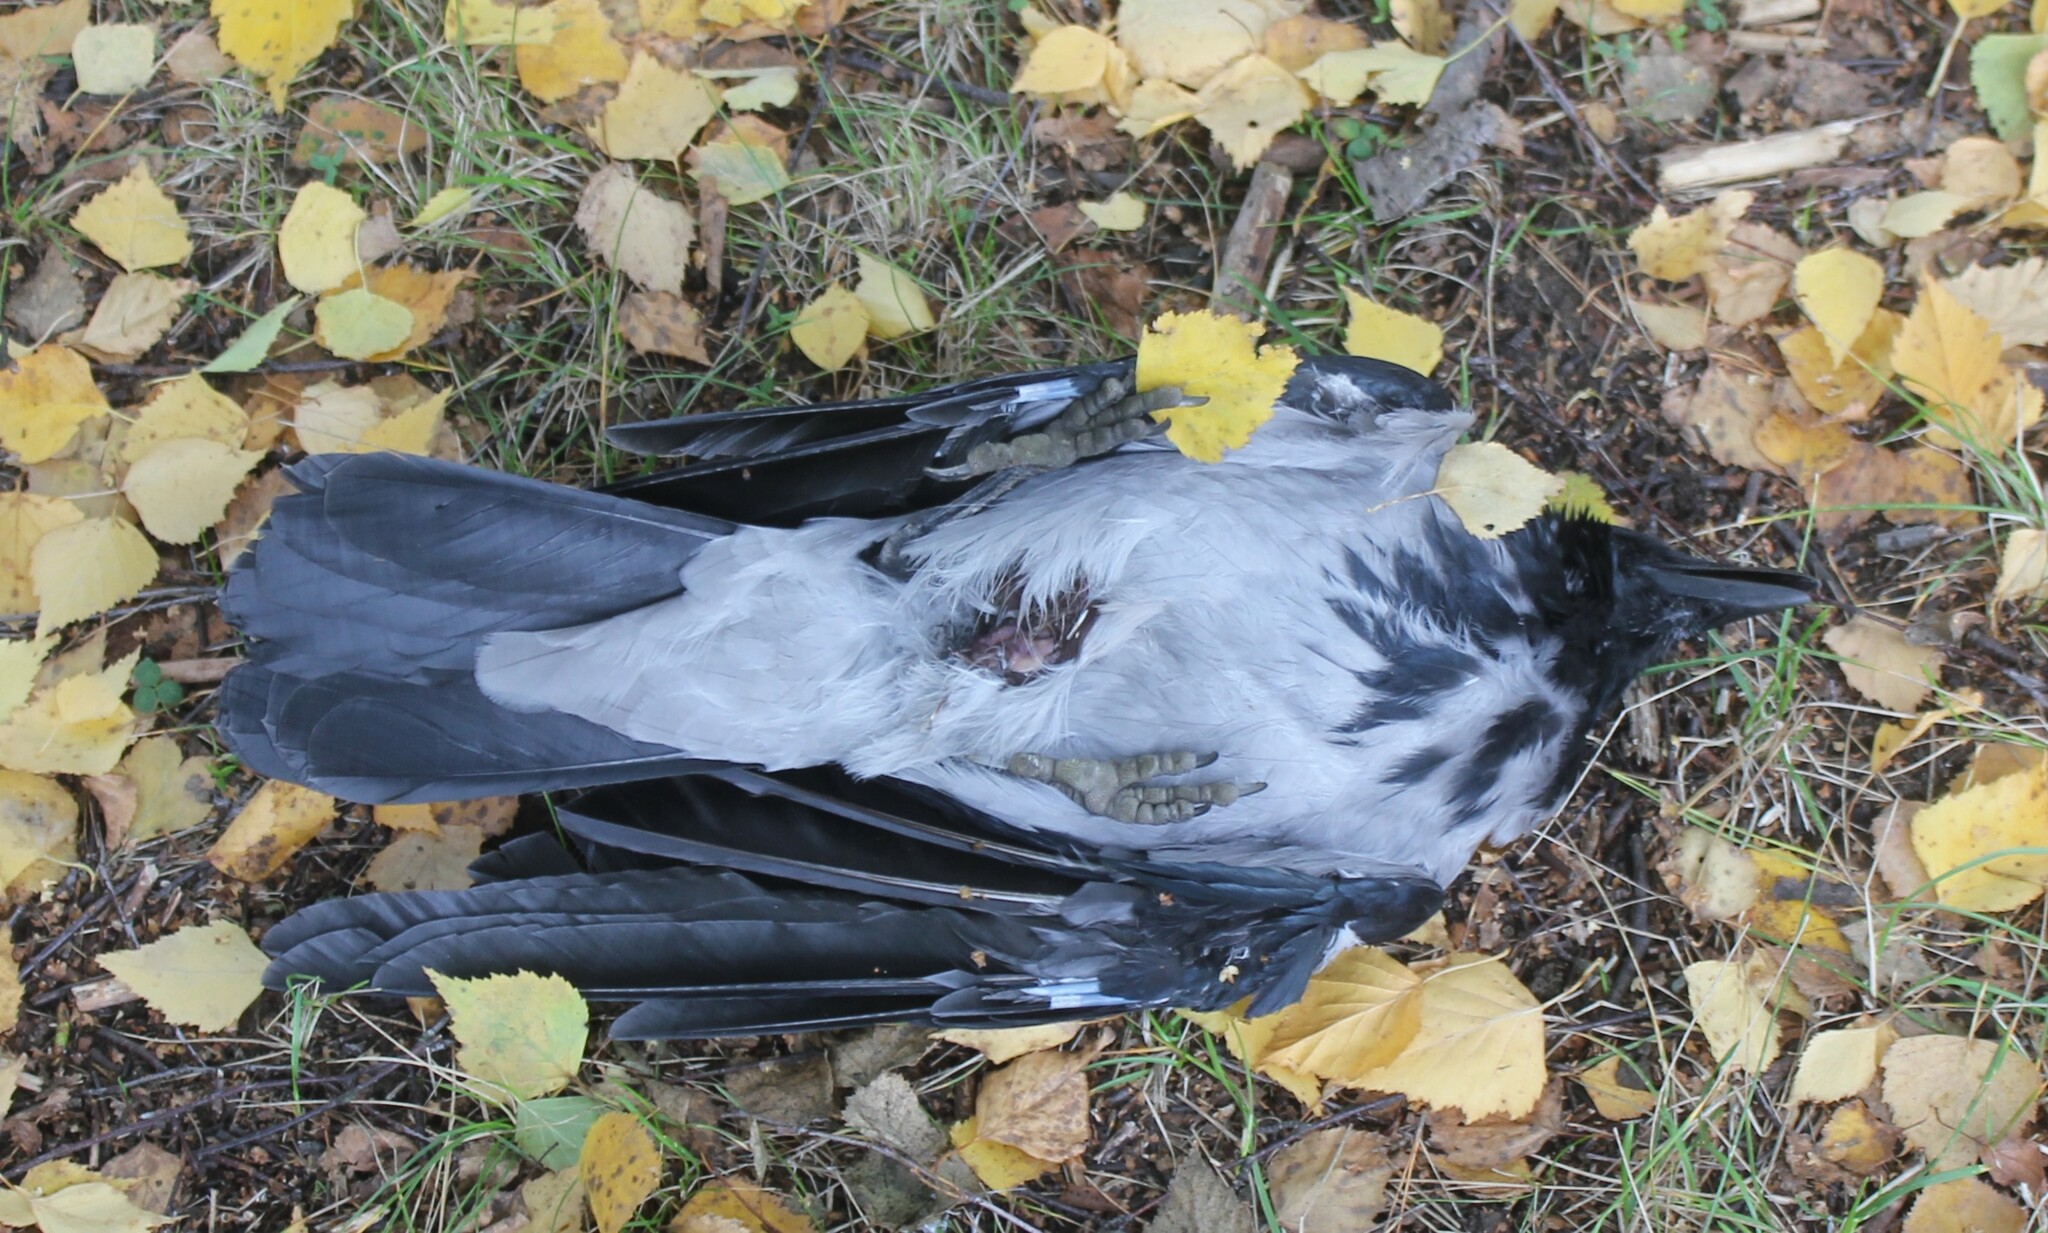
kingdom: Animalia
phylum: Chordata
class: Aves
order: Passeriformes
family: Corvidae
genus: Corvus
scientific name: Corvus cornix
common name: Hooded crow
